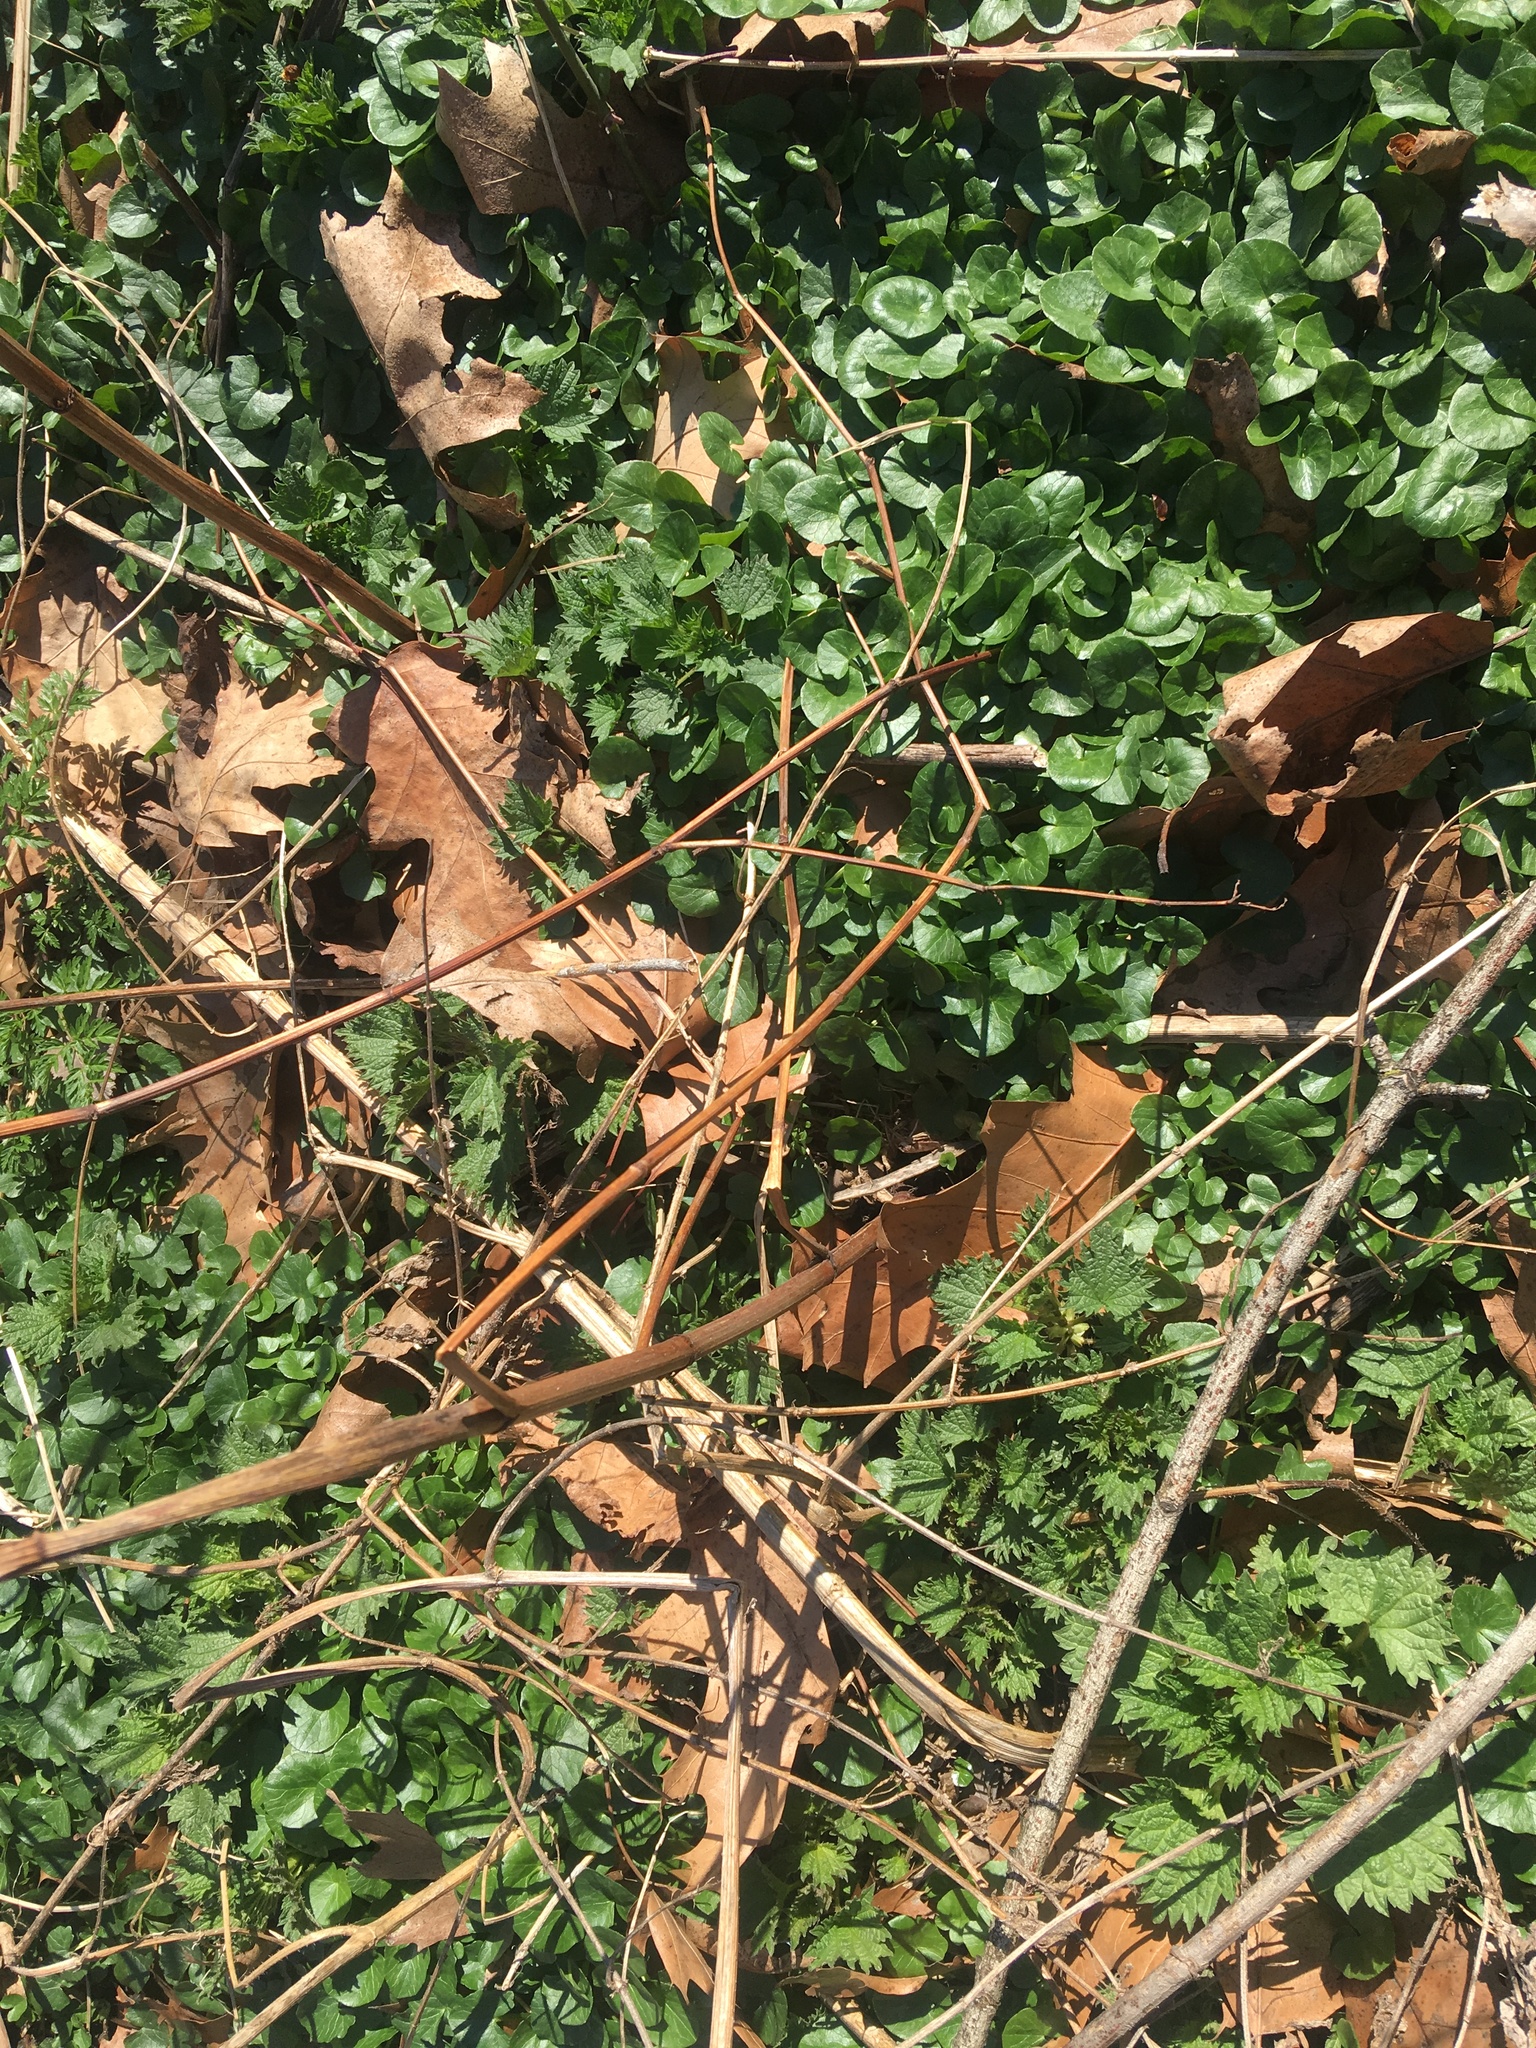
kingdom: Plantae
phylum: Tracheophyta
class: Magnoliopsida
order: Ranunculales
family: Ranunculaceae
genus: Ficaria
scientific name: Ficaria verna
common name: Lesser celandine
